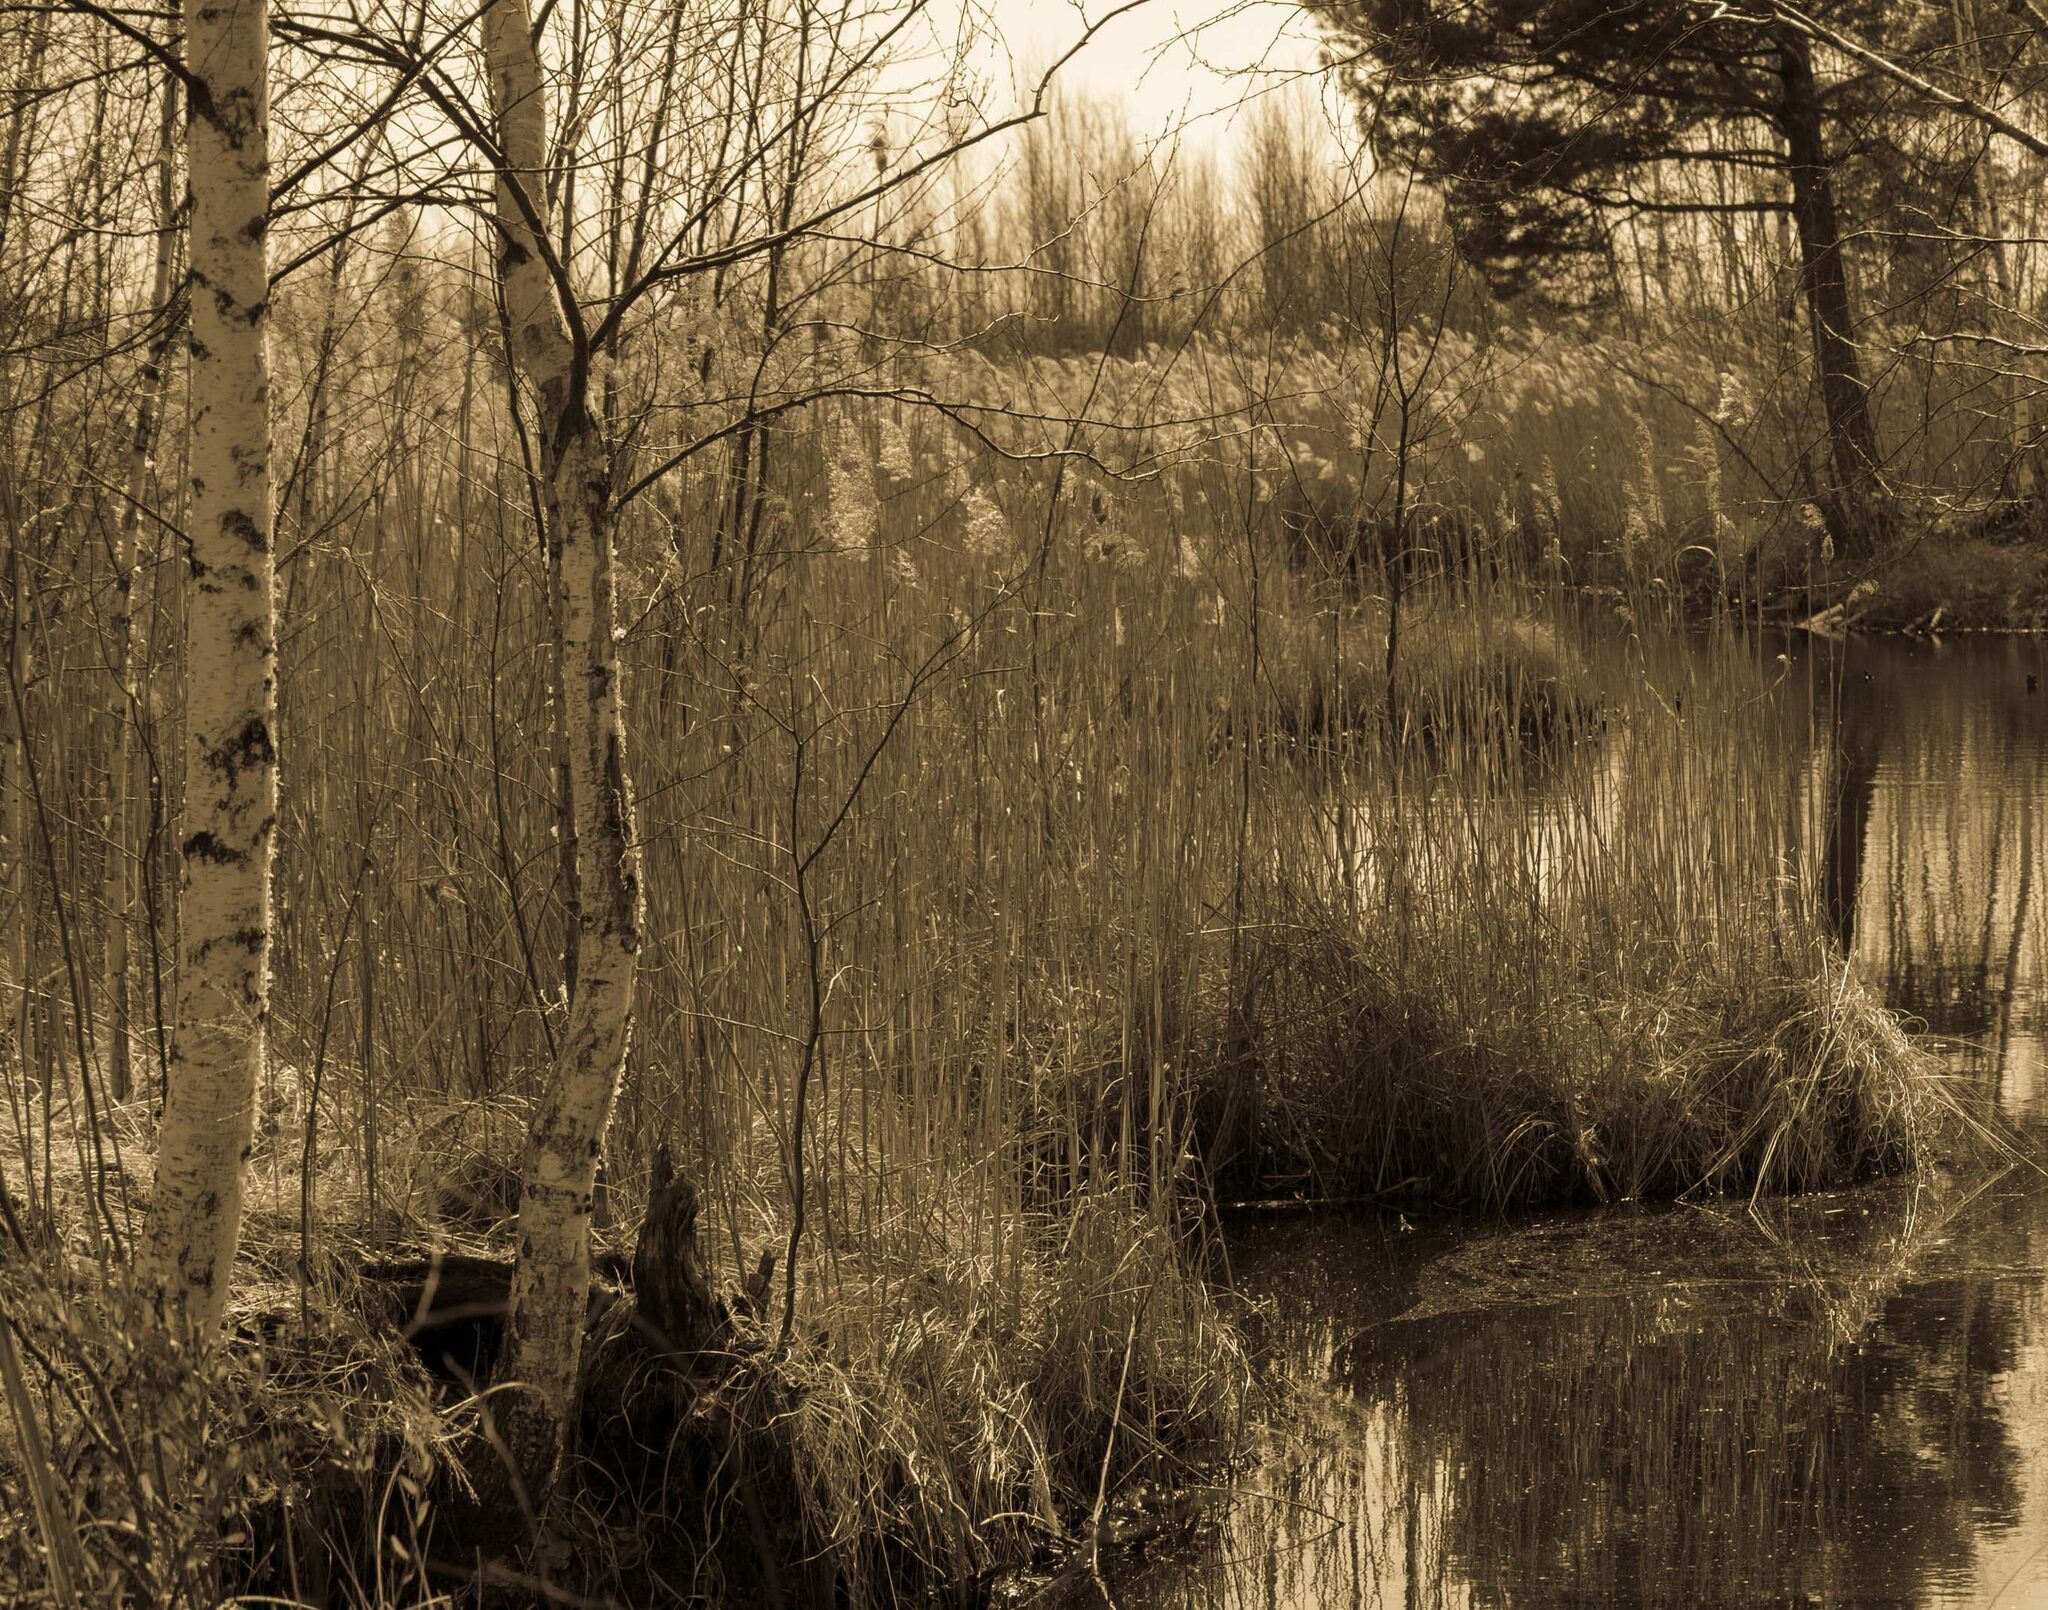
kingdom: Plantae
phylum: Tracheophyta
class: Liliopsida
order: Poales
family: Poaceae
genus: Phragmites
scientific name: Phragmites australis
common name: Common reed
